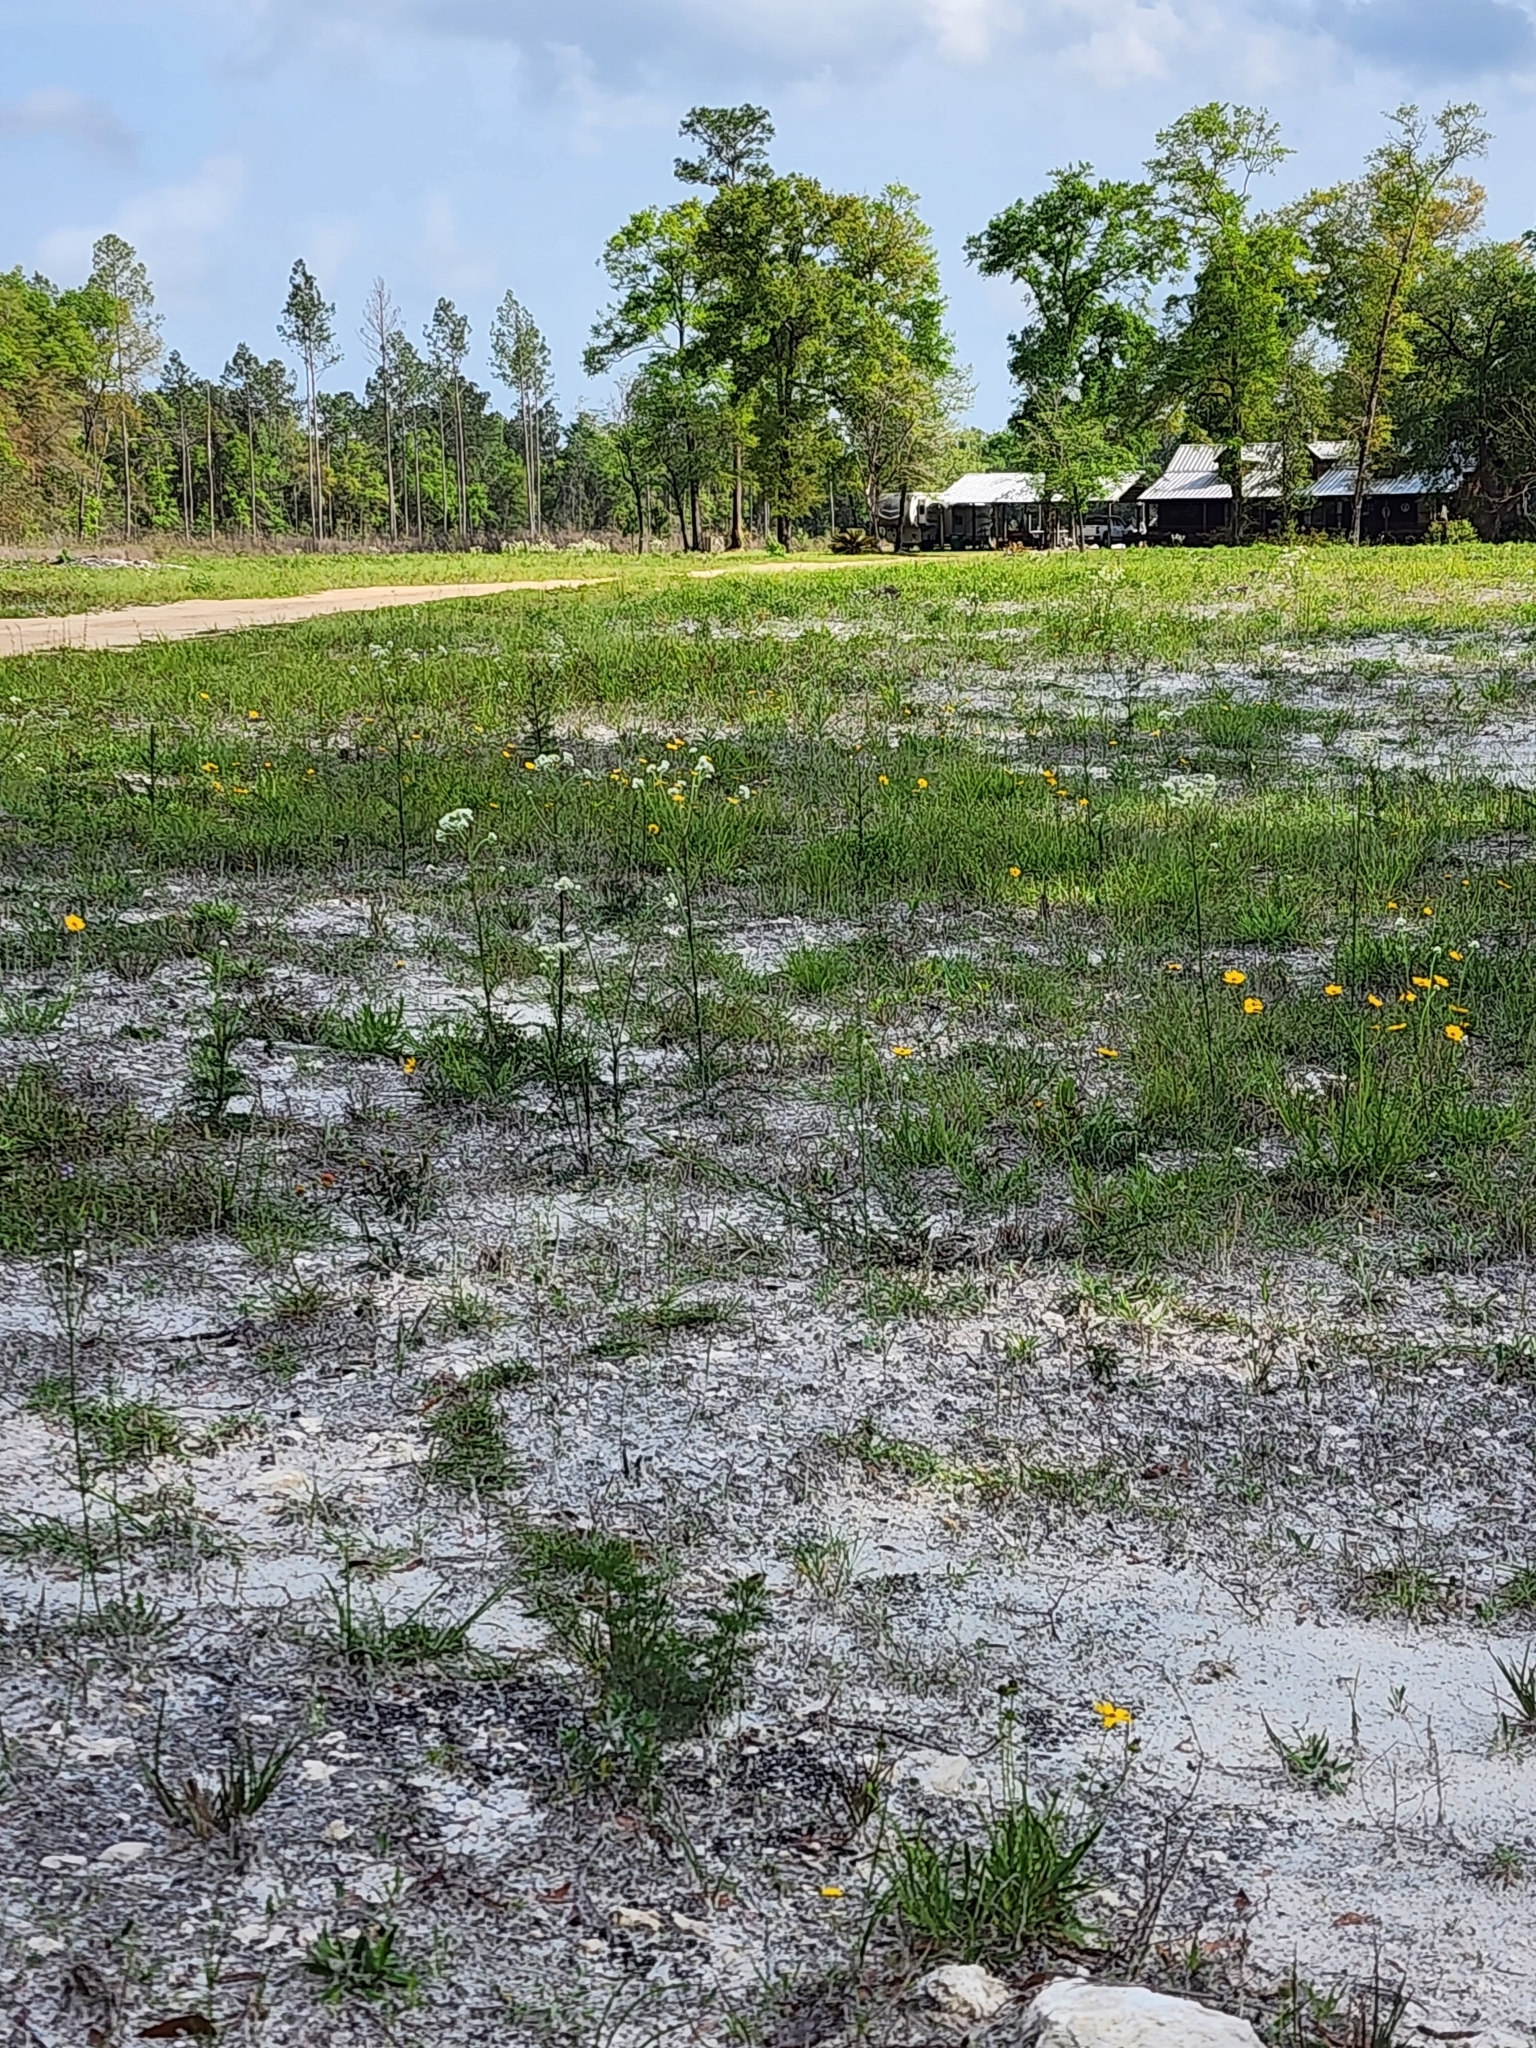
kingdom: Plantae
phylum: Tracheophyta
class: Magnoliopsida
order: Asterales
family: Asteraceae
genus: Hymenopappus
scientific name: Hymenopappus scabiosaeus
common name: Carolina woollywhite
